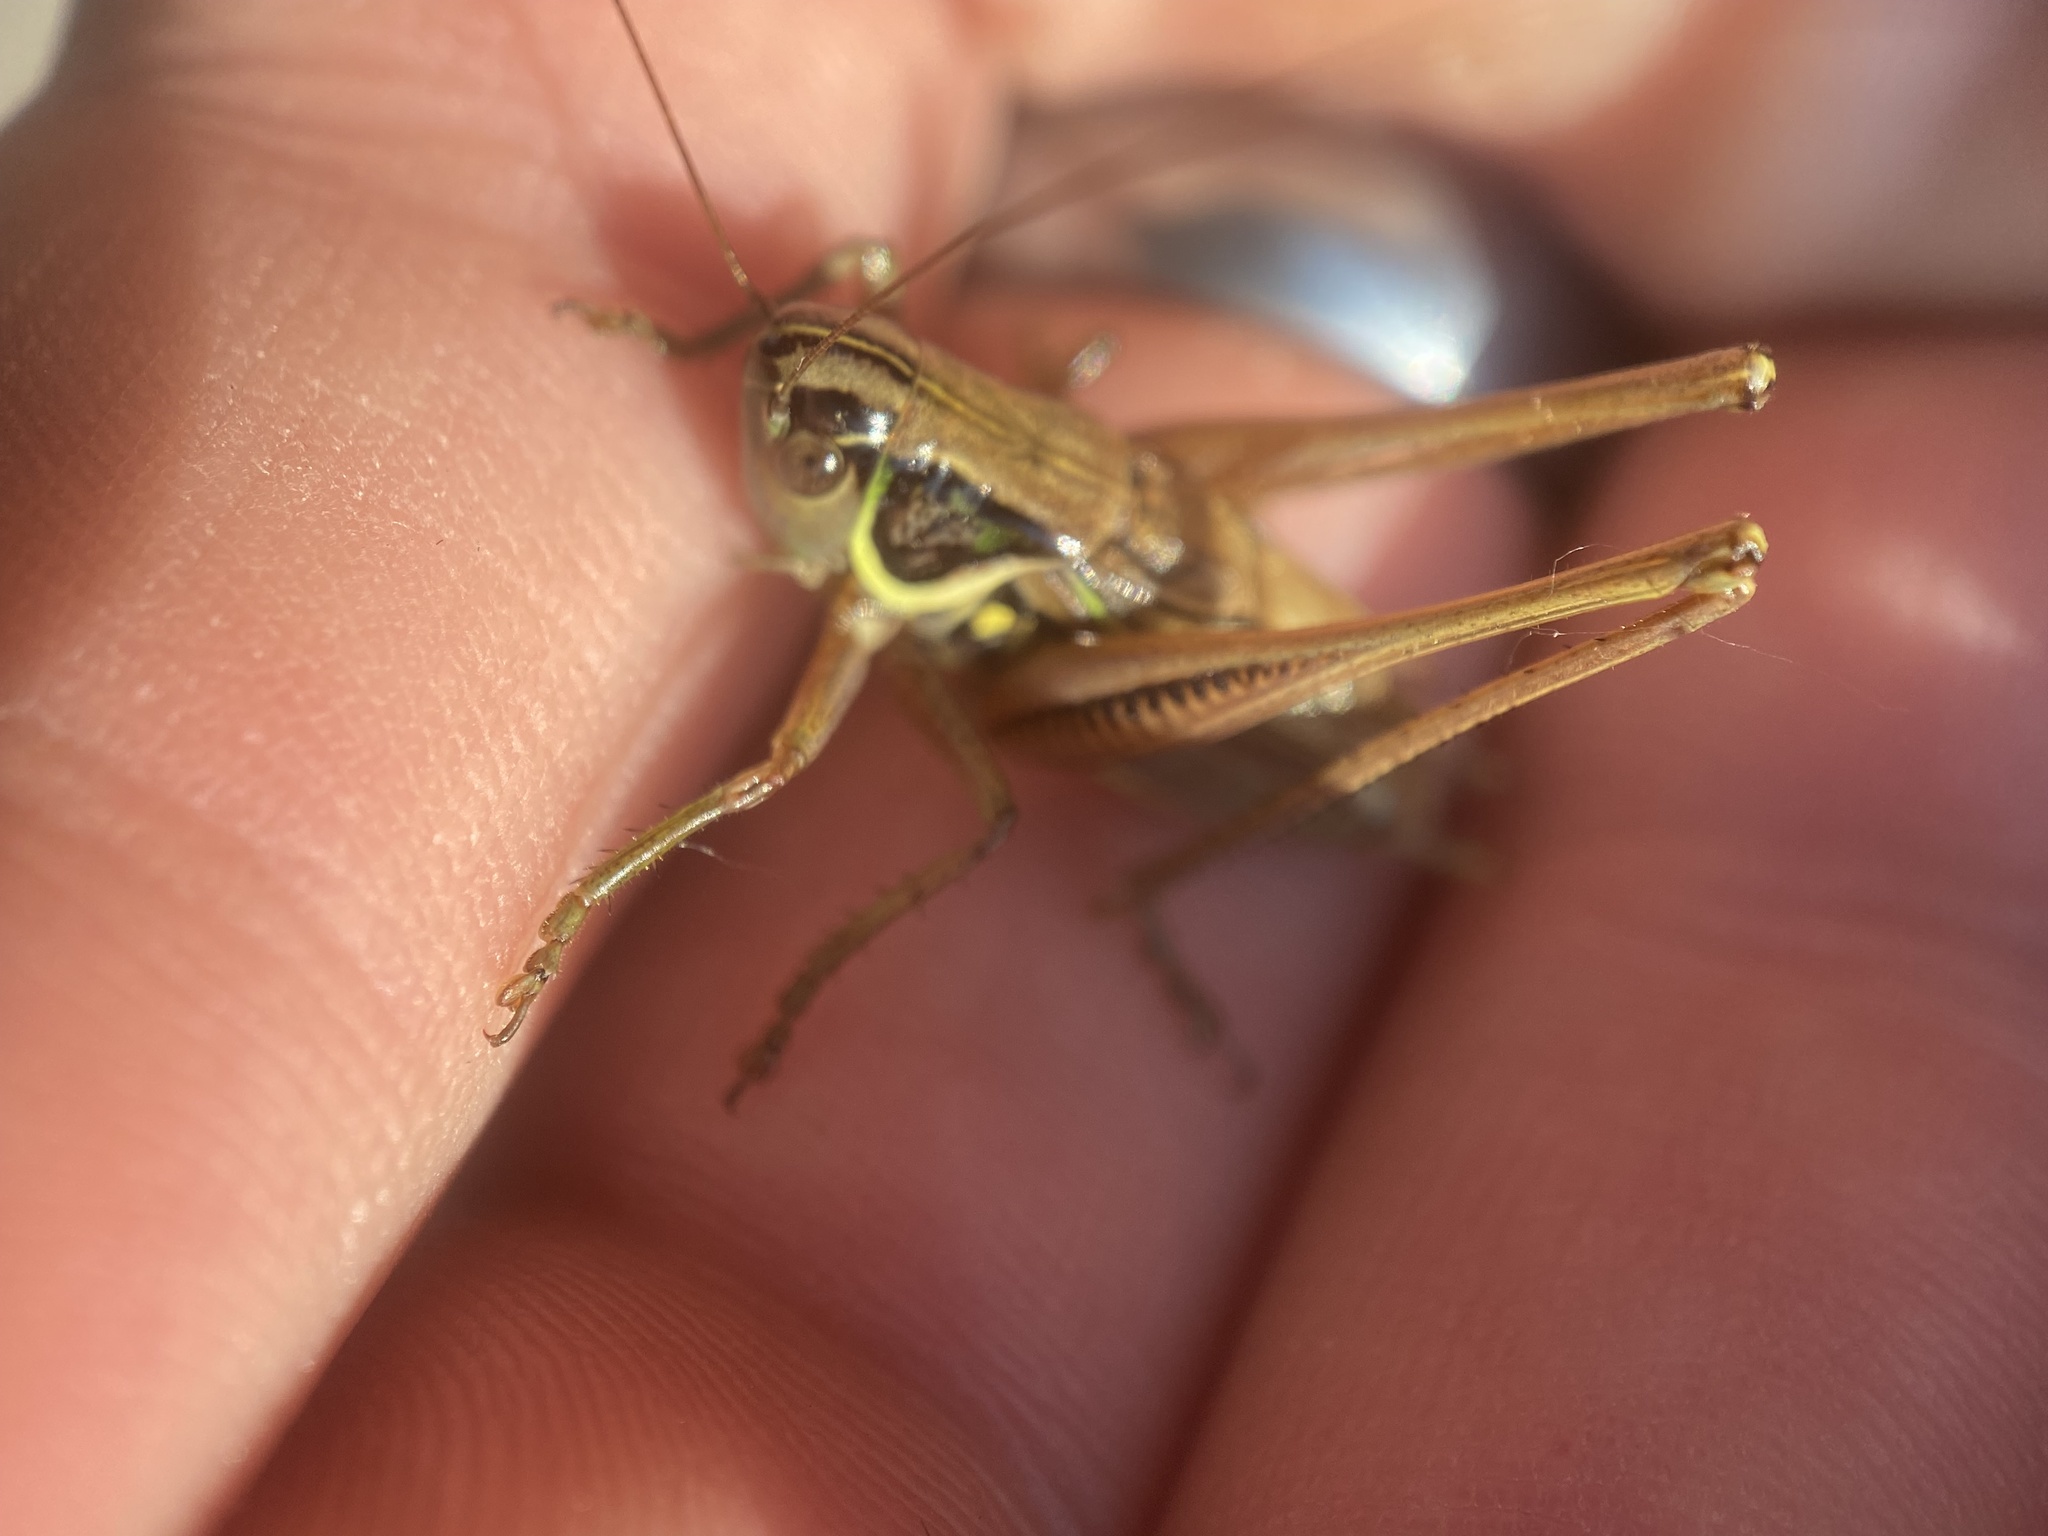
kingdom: Animalia
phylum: Arthropoda
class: Insecta
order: Orthoptera
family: Tettigoniidae
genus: Roeseliana
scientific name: Roeseliana roeselii
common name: Roesel's bush cricket
